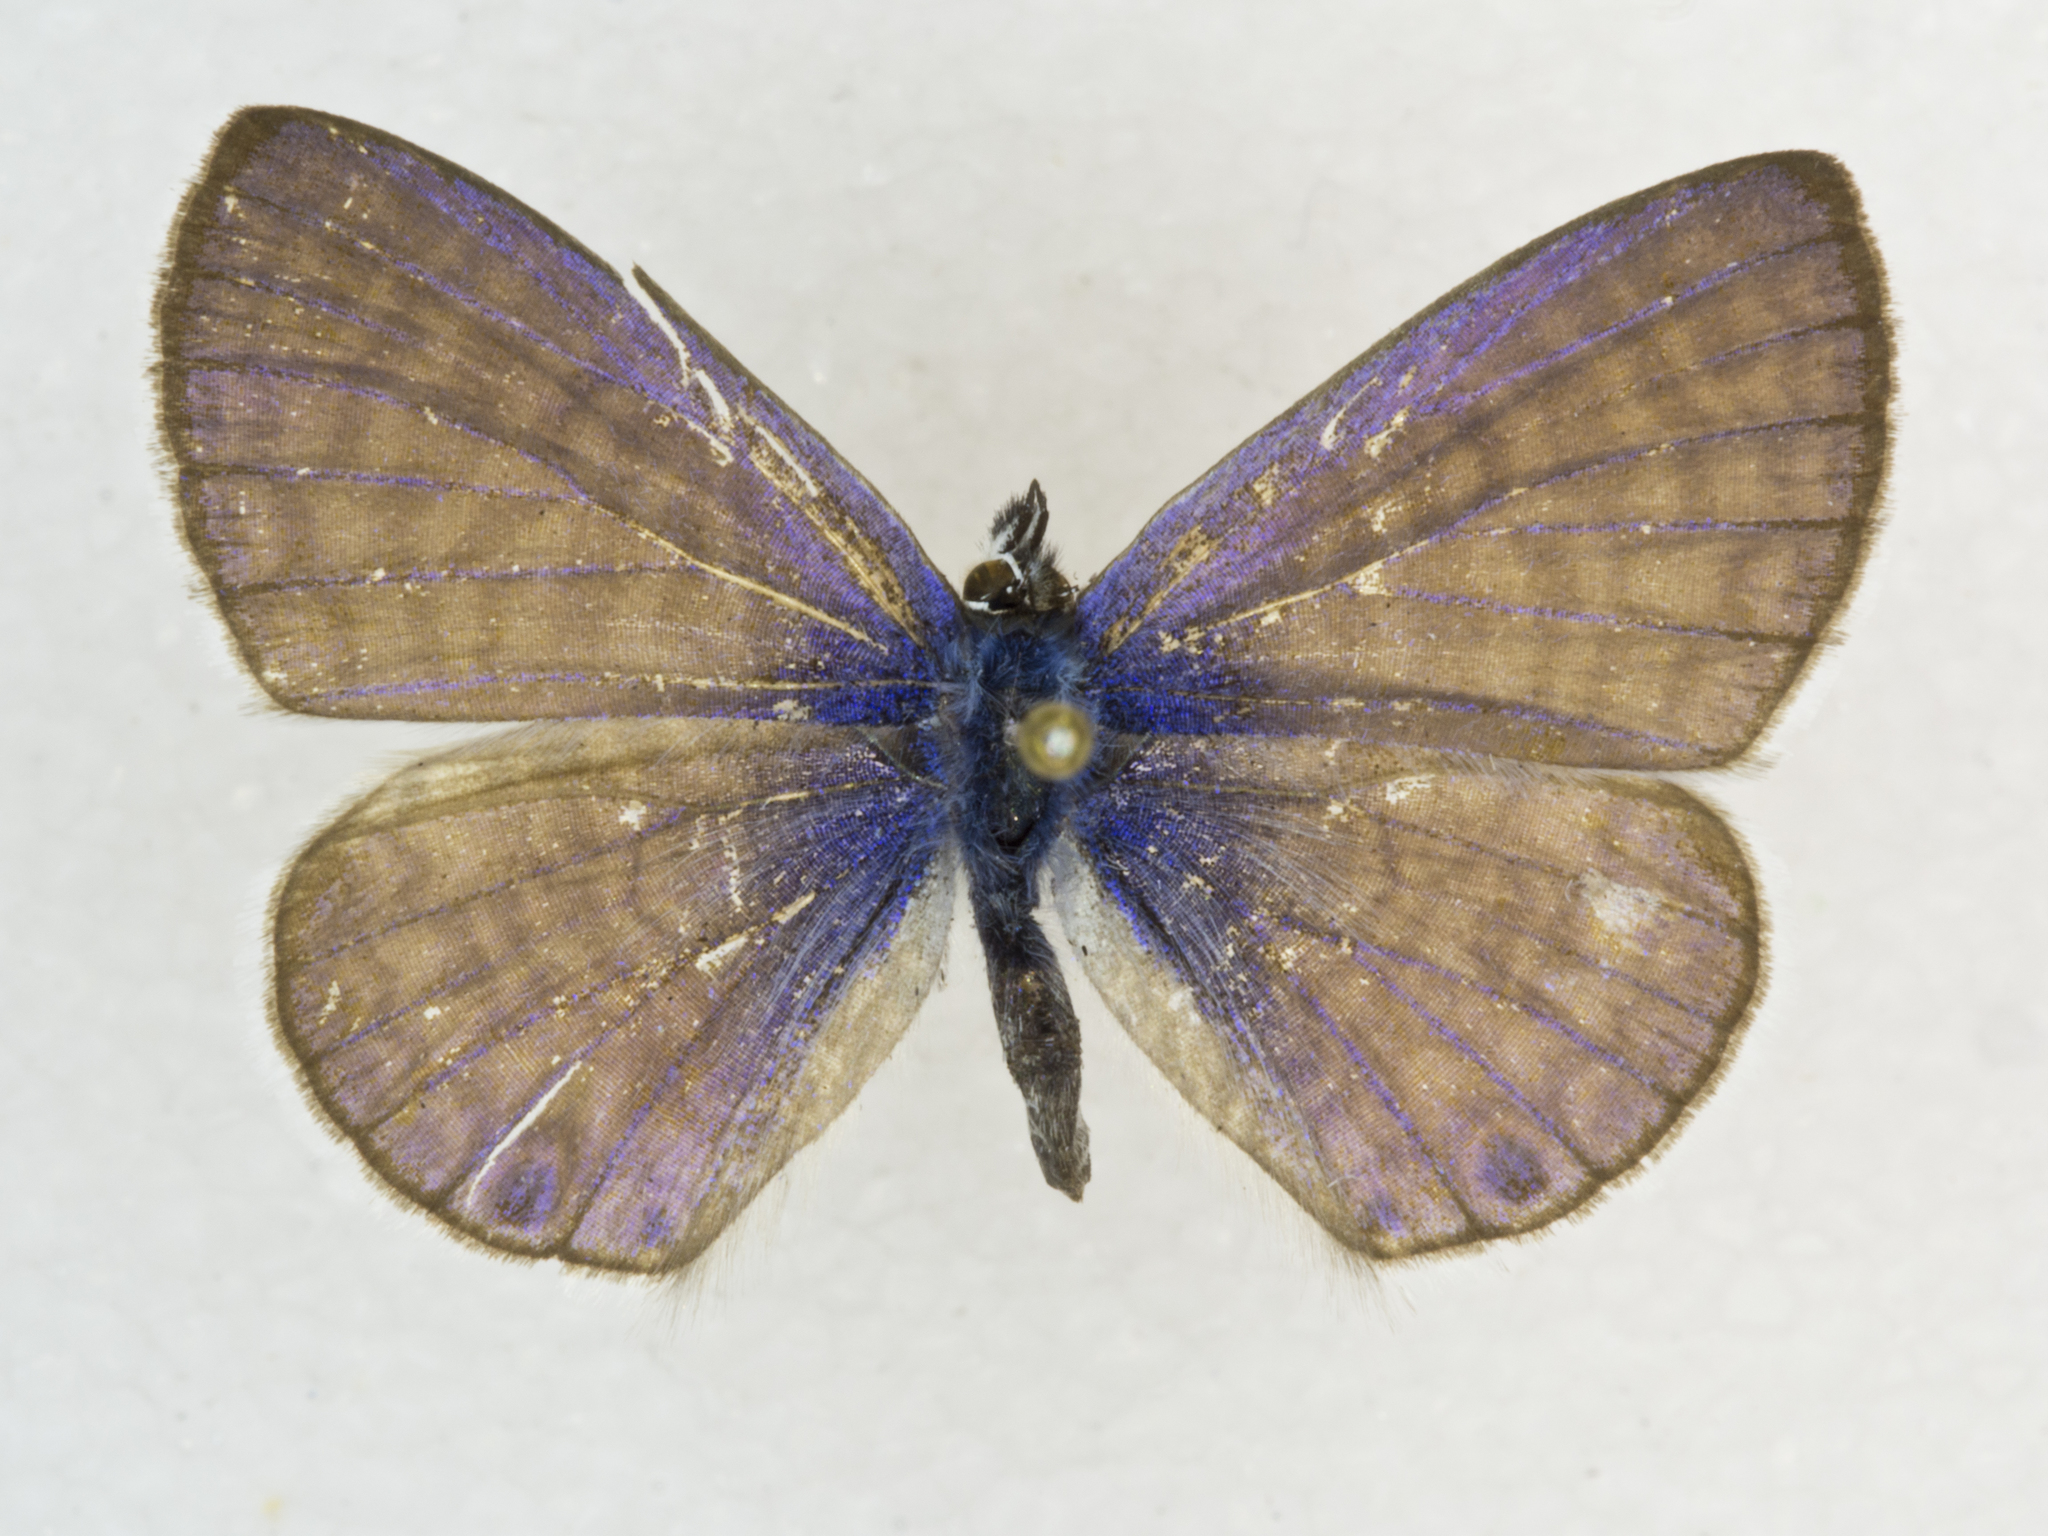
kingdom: Animalia
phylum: Arthropoda
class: Insecta
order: Lepidoptera
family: Lycaenidae
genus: Leptotes
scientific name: Leptotes marina
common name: Marine blue
